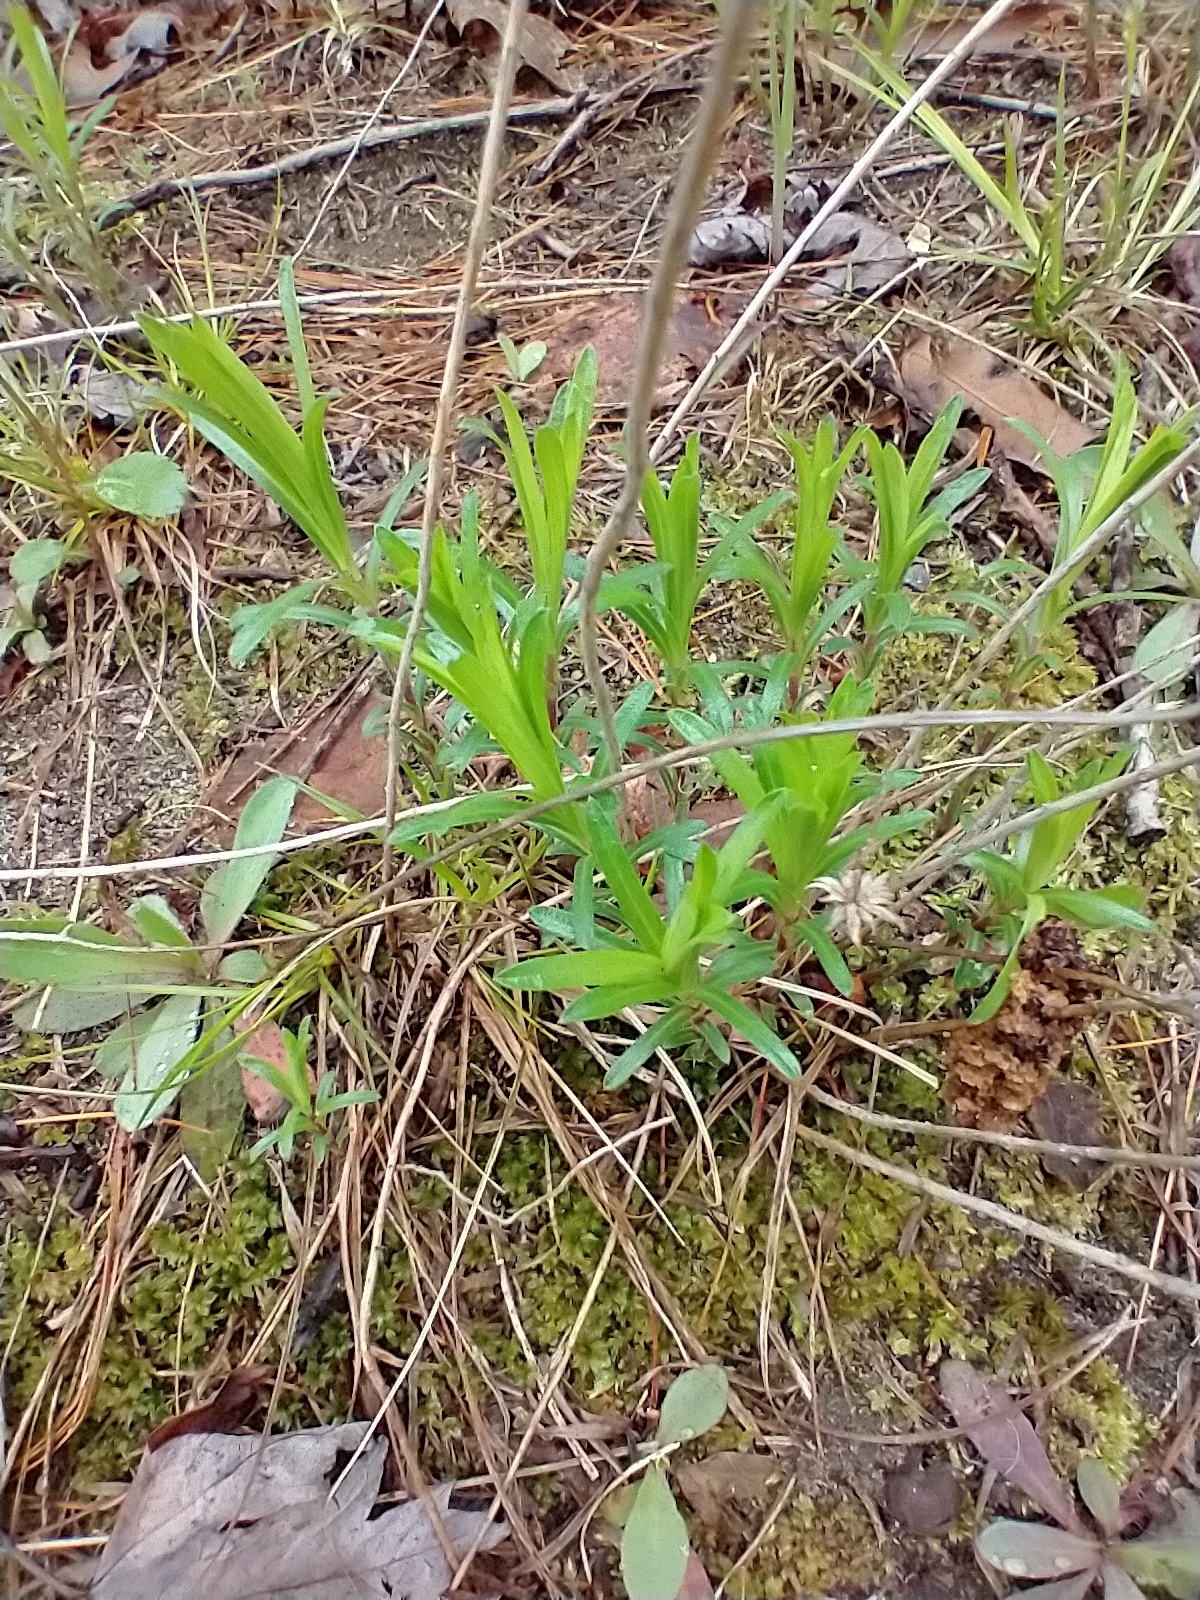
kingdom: Plantae
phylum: Tracheophyta
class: Magnoliopsida
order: Asterales
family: Asteraceae
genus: Ionactis
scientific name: Ionactis linariifolia
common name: Flax-leaf aster
